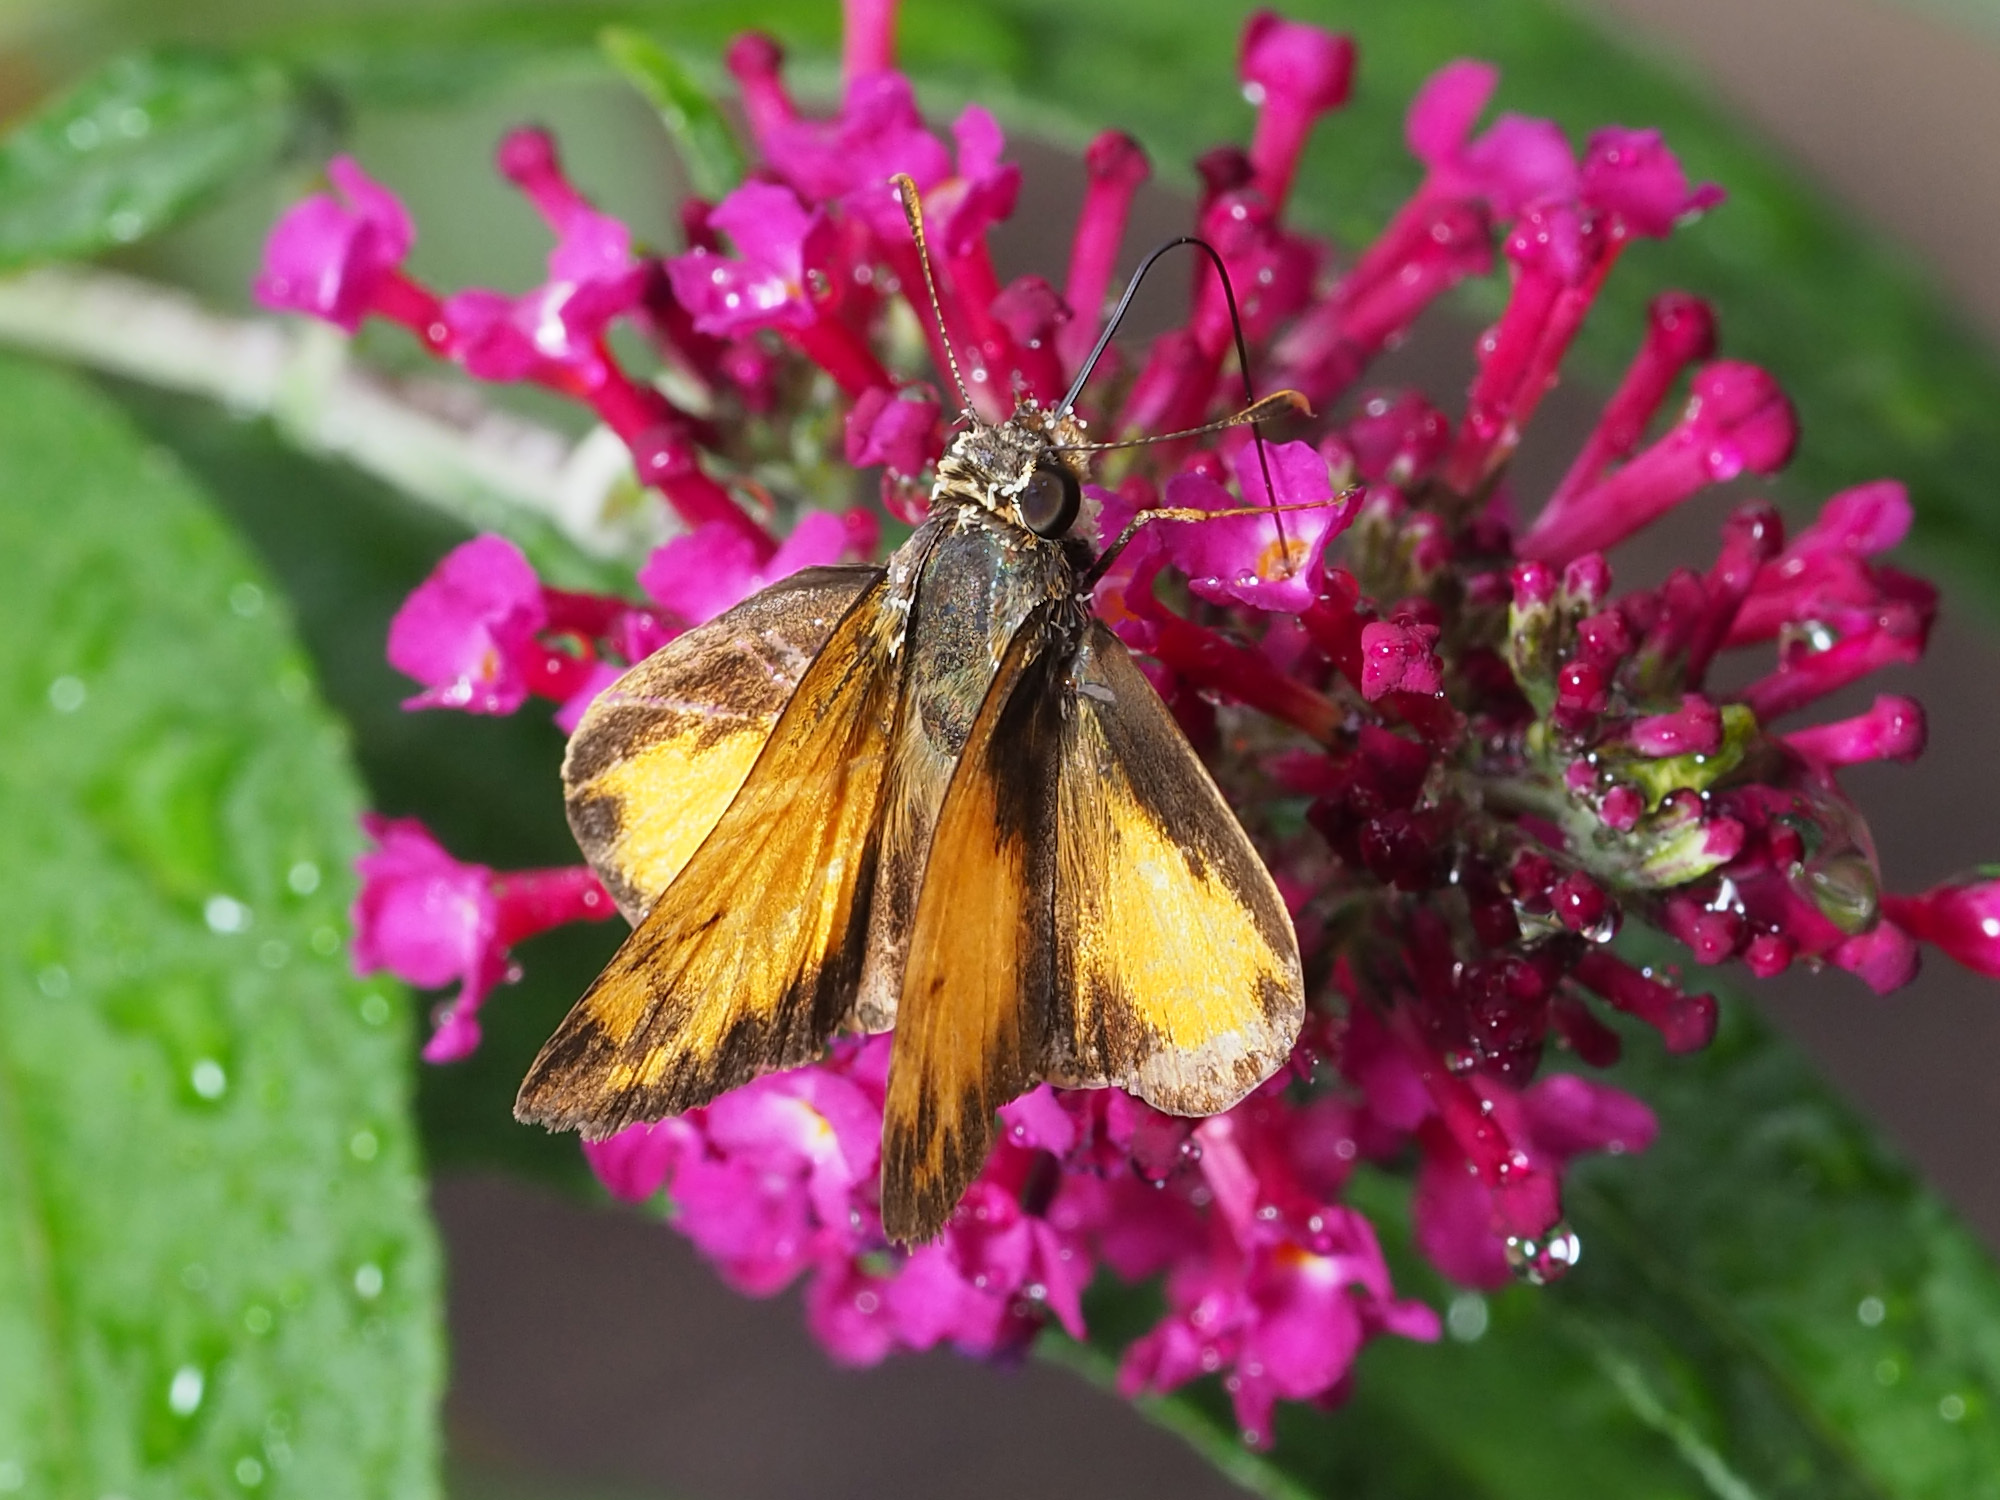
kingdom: Animalia
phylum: Arthropoda
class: Insecta
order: Lepidoptera
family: Hesperiidae
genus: Lon
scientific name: Lon zabulon
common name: Zabulon skipper
